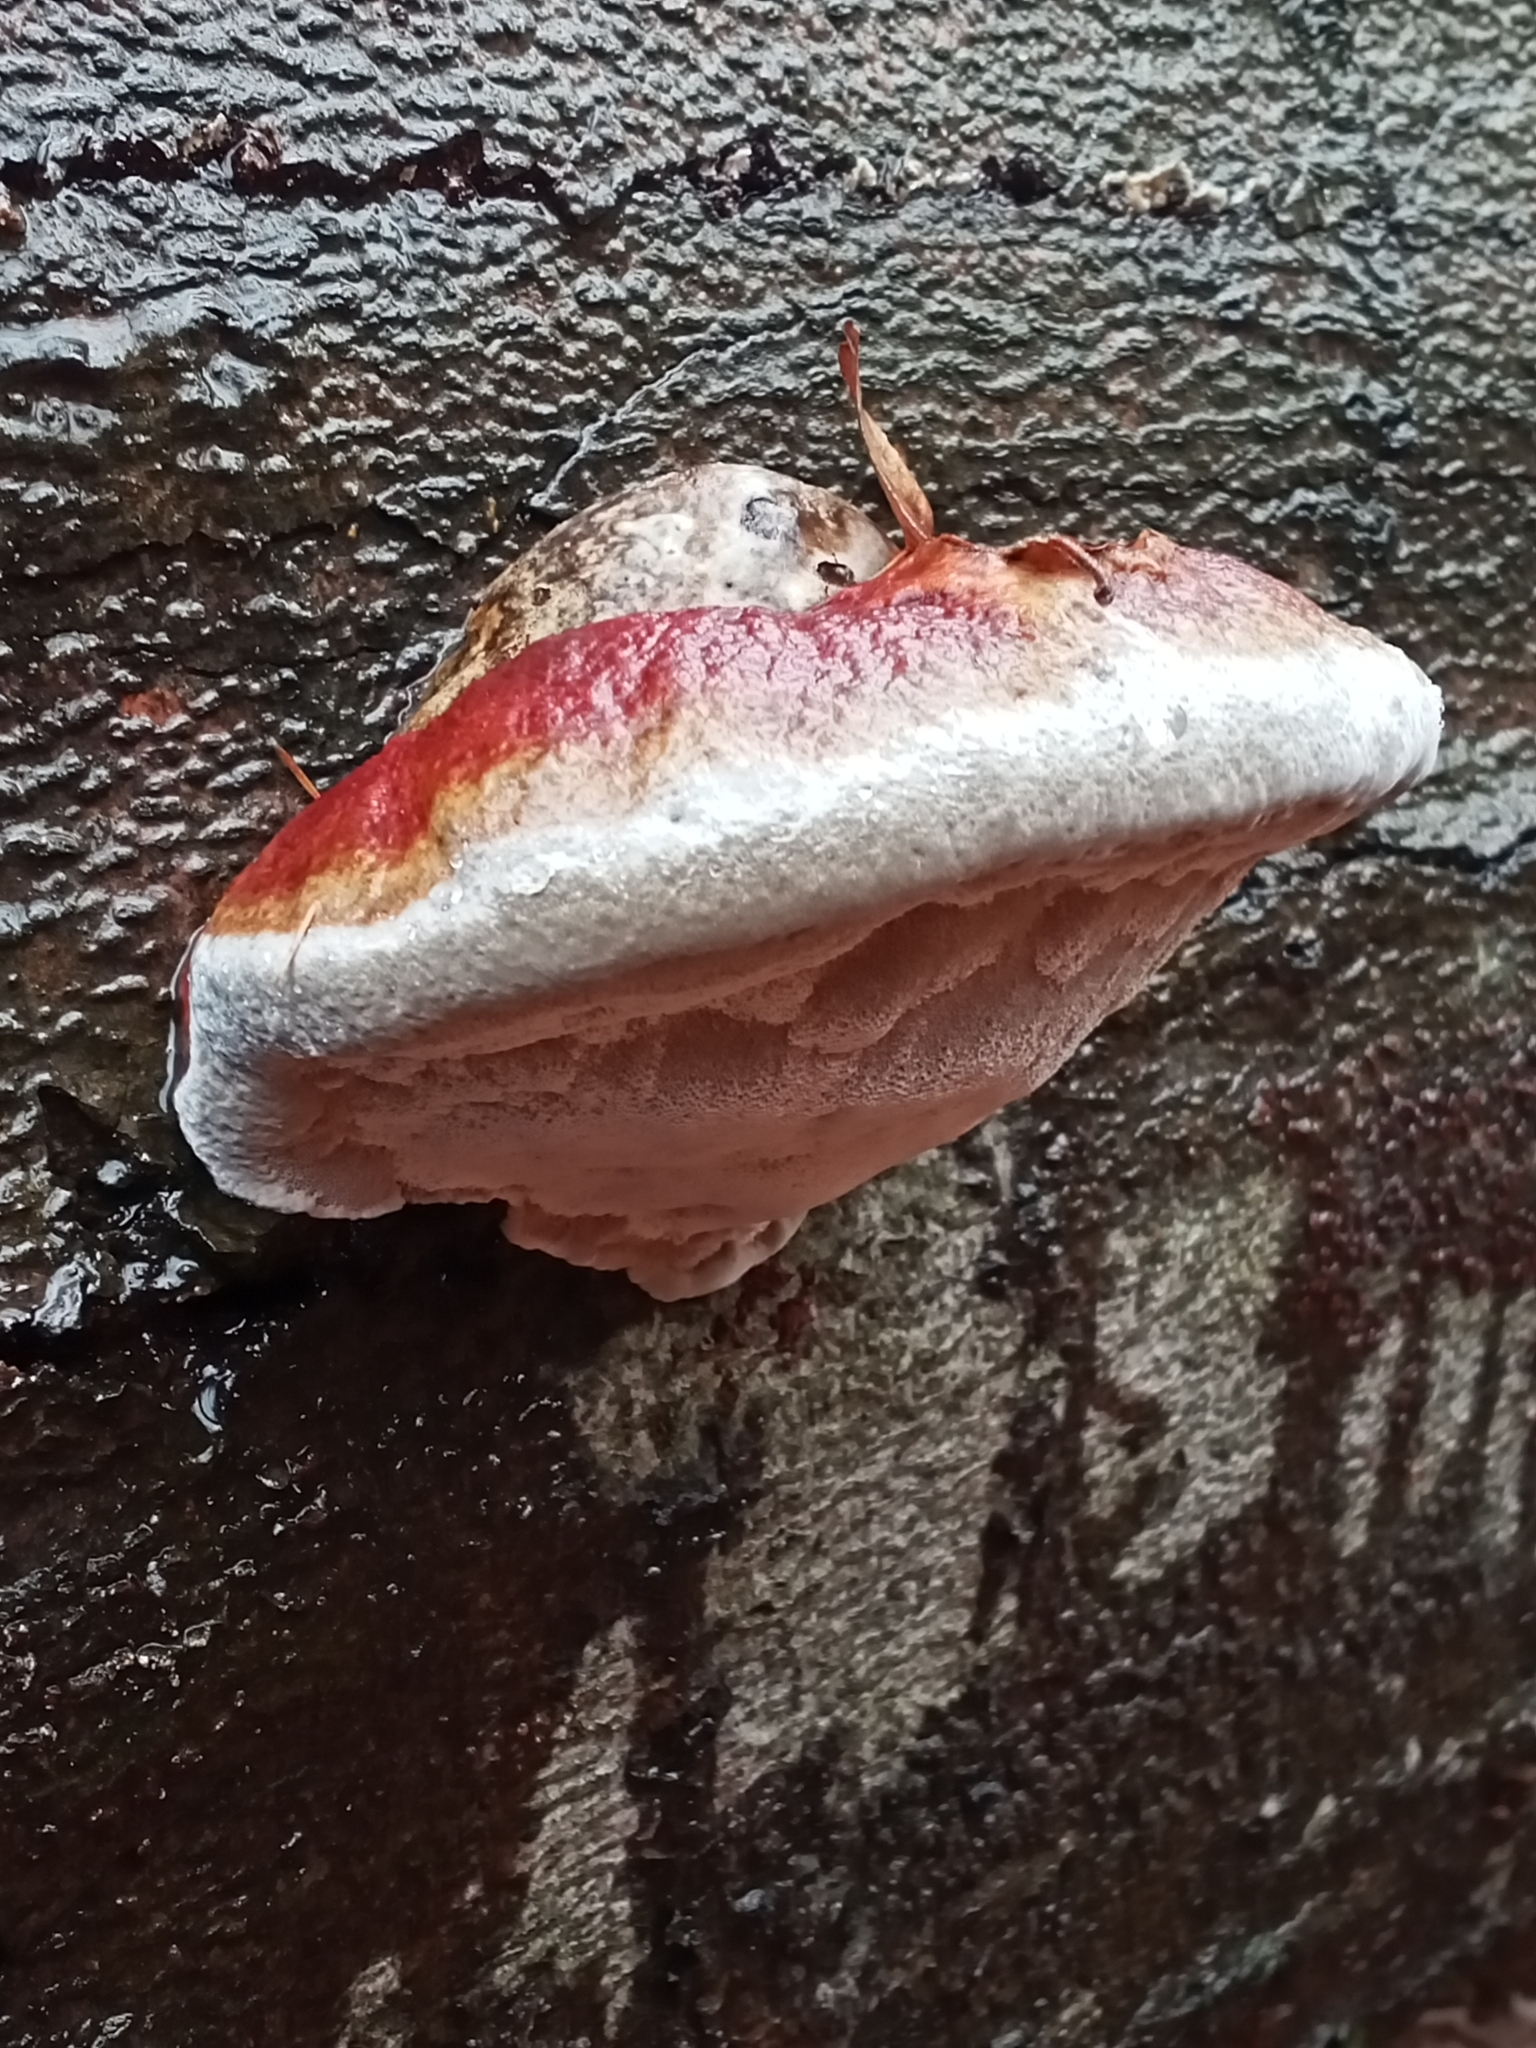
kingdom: Fungi
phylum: Basidiomycota
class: Agaricomycetes
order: Polyporales
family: Fomitopsidaceae
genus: Fomitopsis
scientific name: Fomitopsis pinicola
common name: Red-belted bracket
